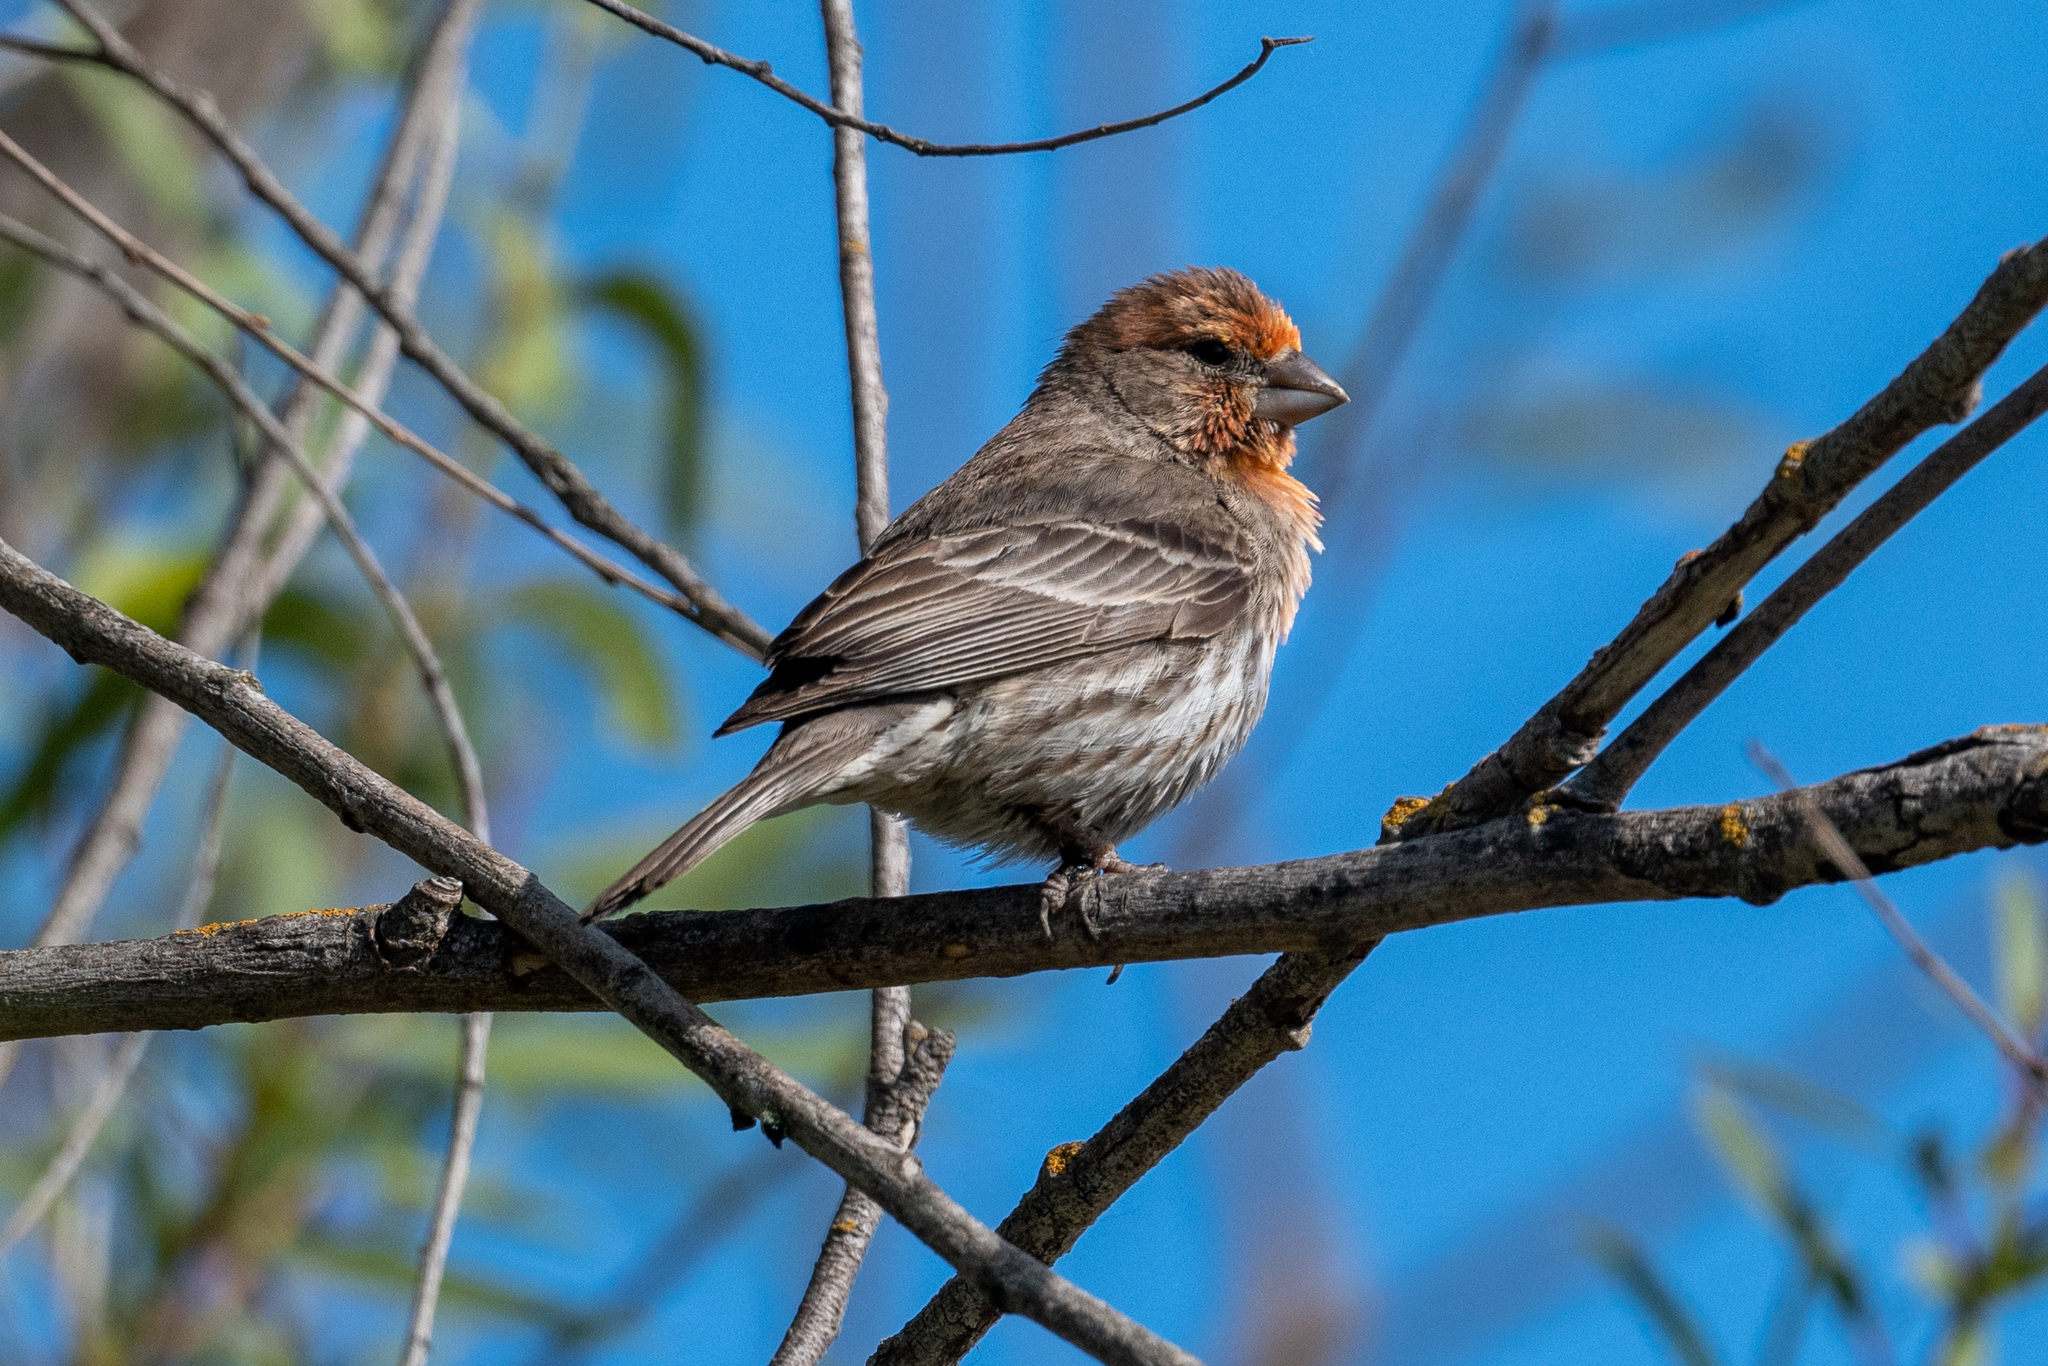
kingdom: Animalia
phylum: Chordata
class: Aves
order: Passeriformes
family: Fringillidae
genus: Haemorhous
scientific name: Haemorhous mexicanus
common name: House finch
